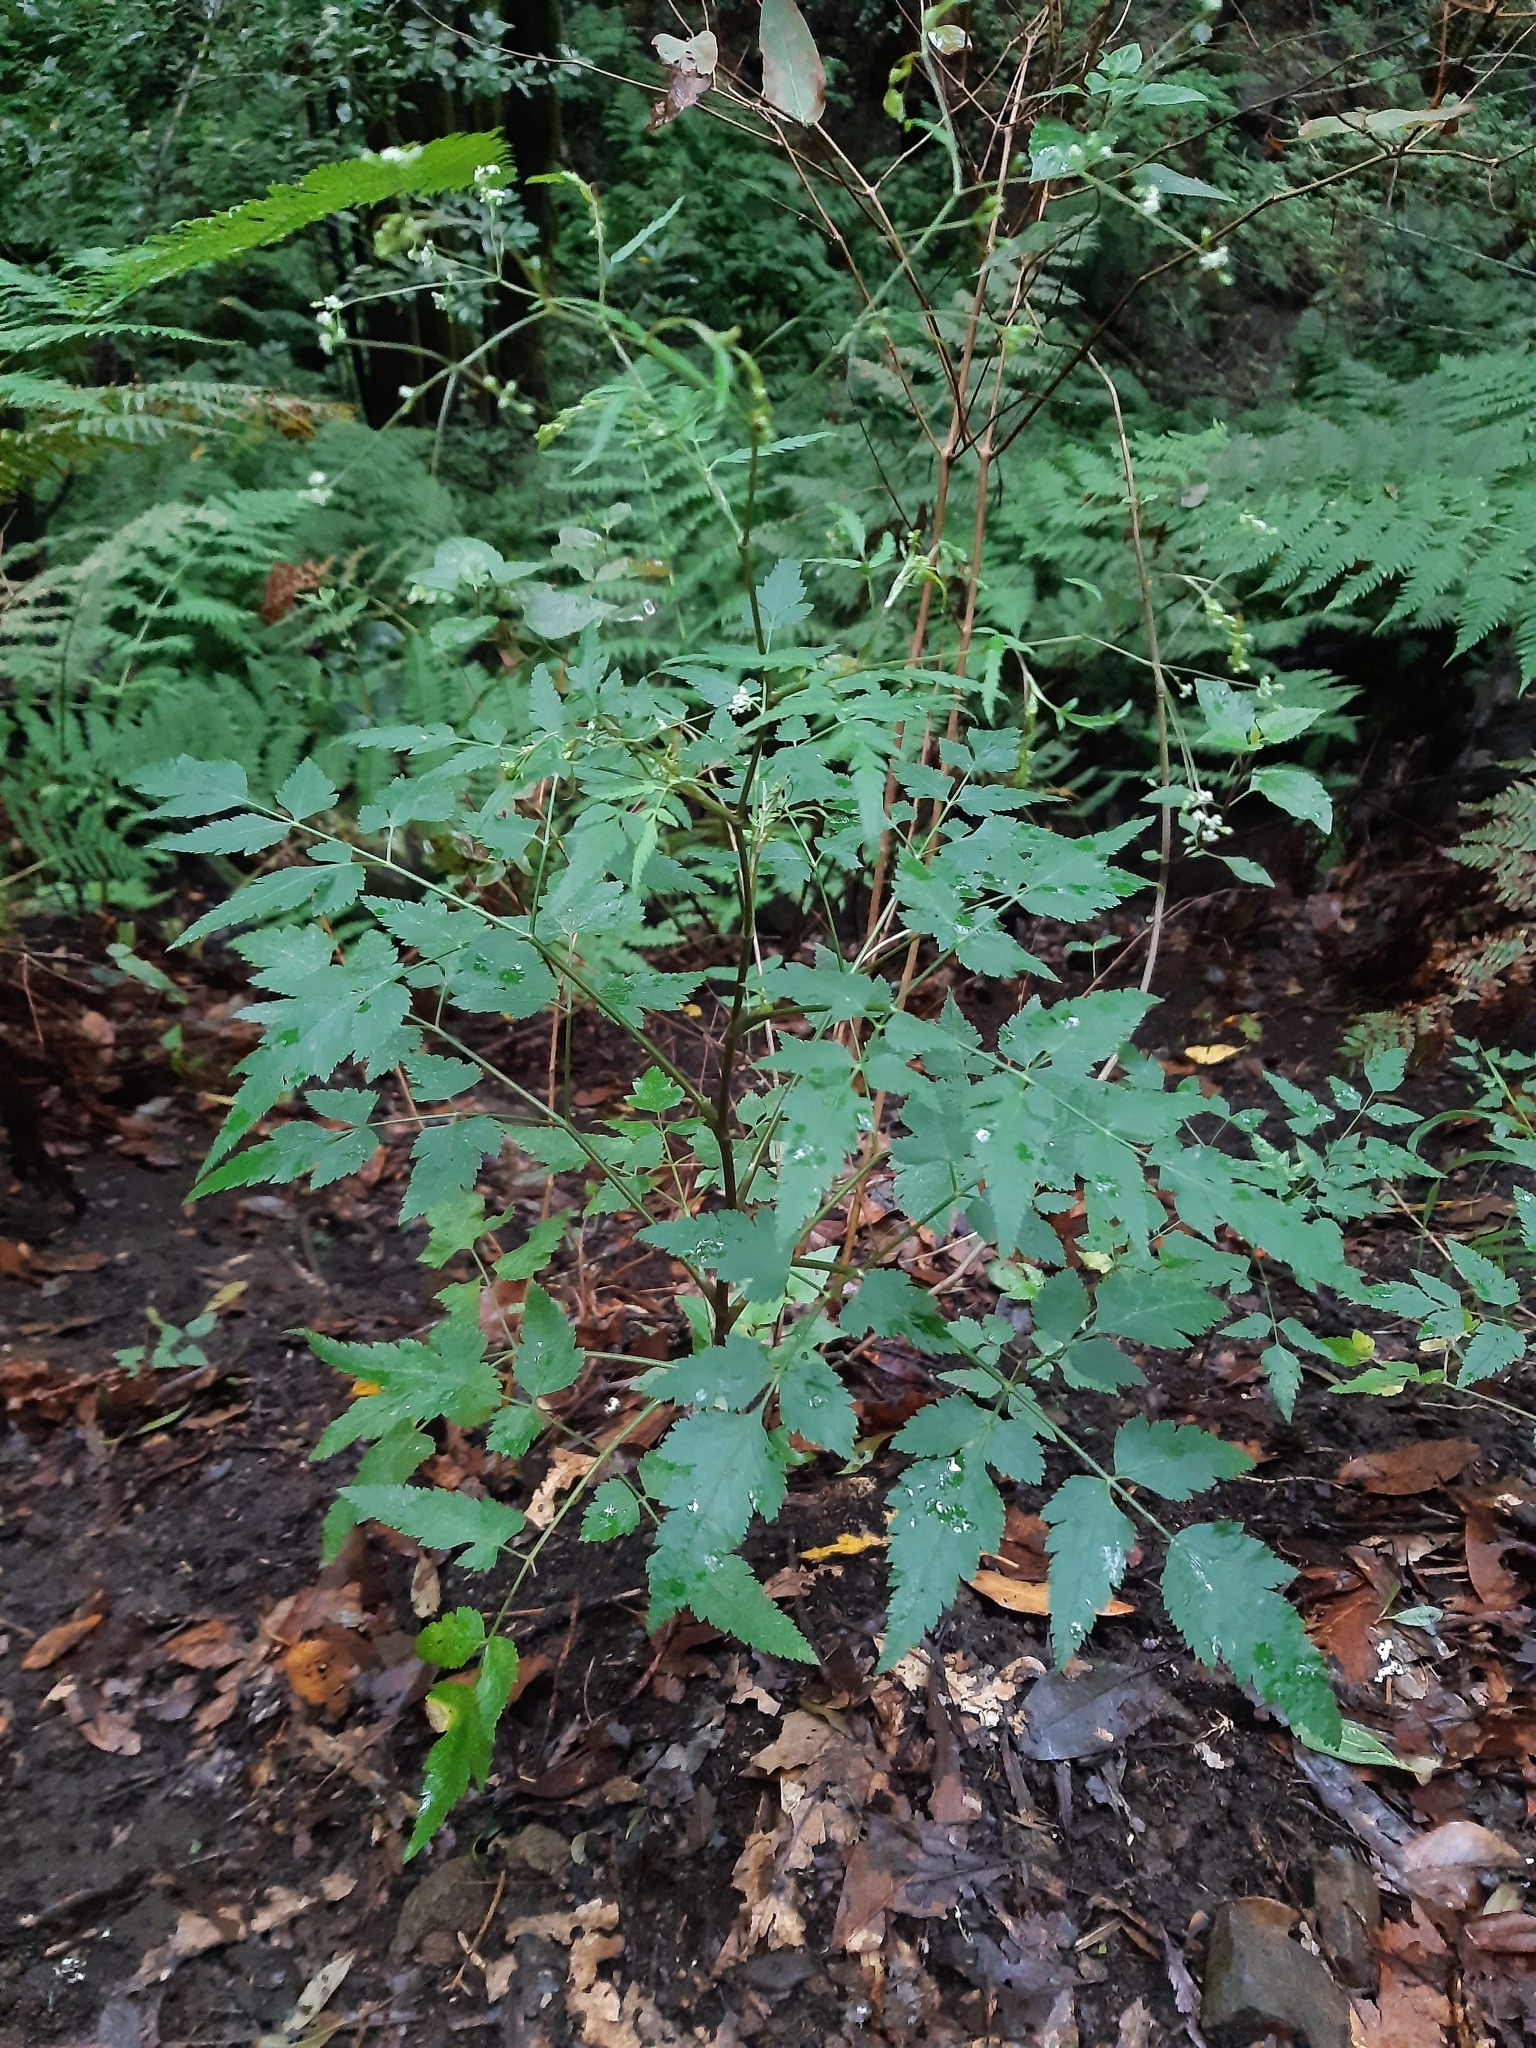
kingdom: Plantae
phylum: Tracheophyta
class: Magnoliopsida
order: Apiales
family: Apiaceae
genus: Daucus
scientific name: Daucus elegans
